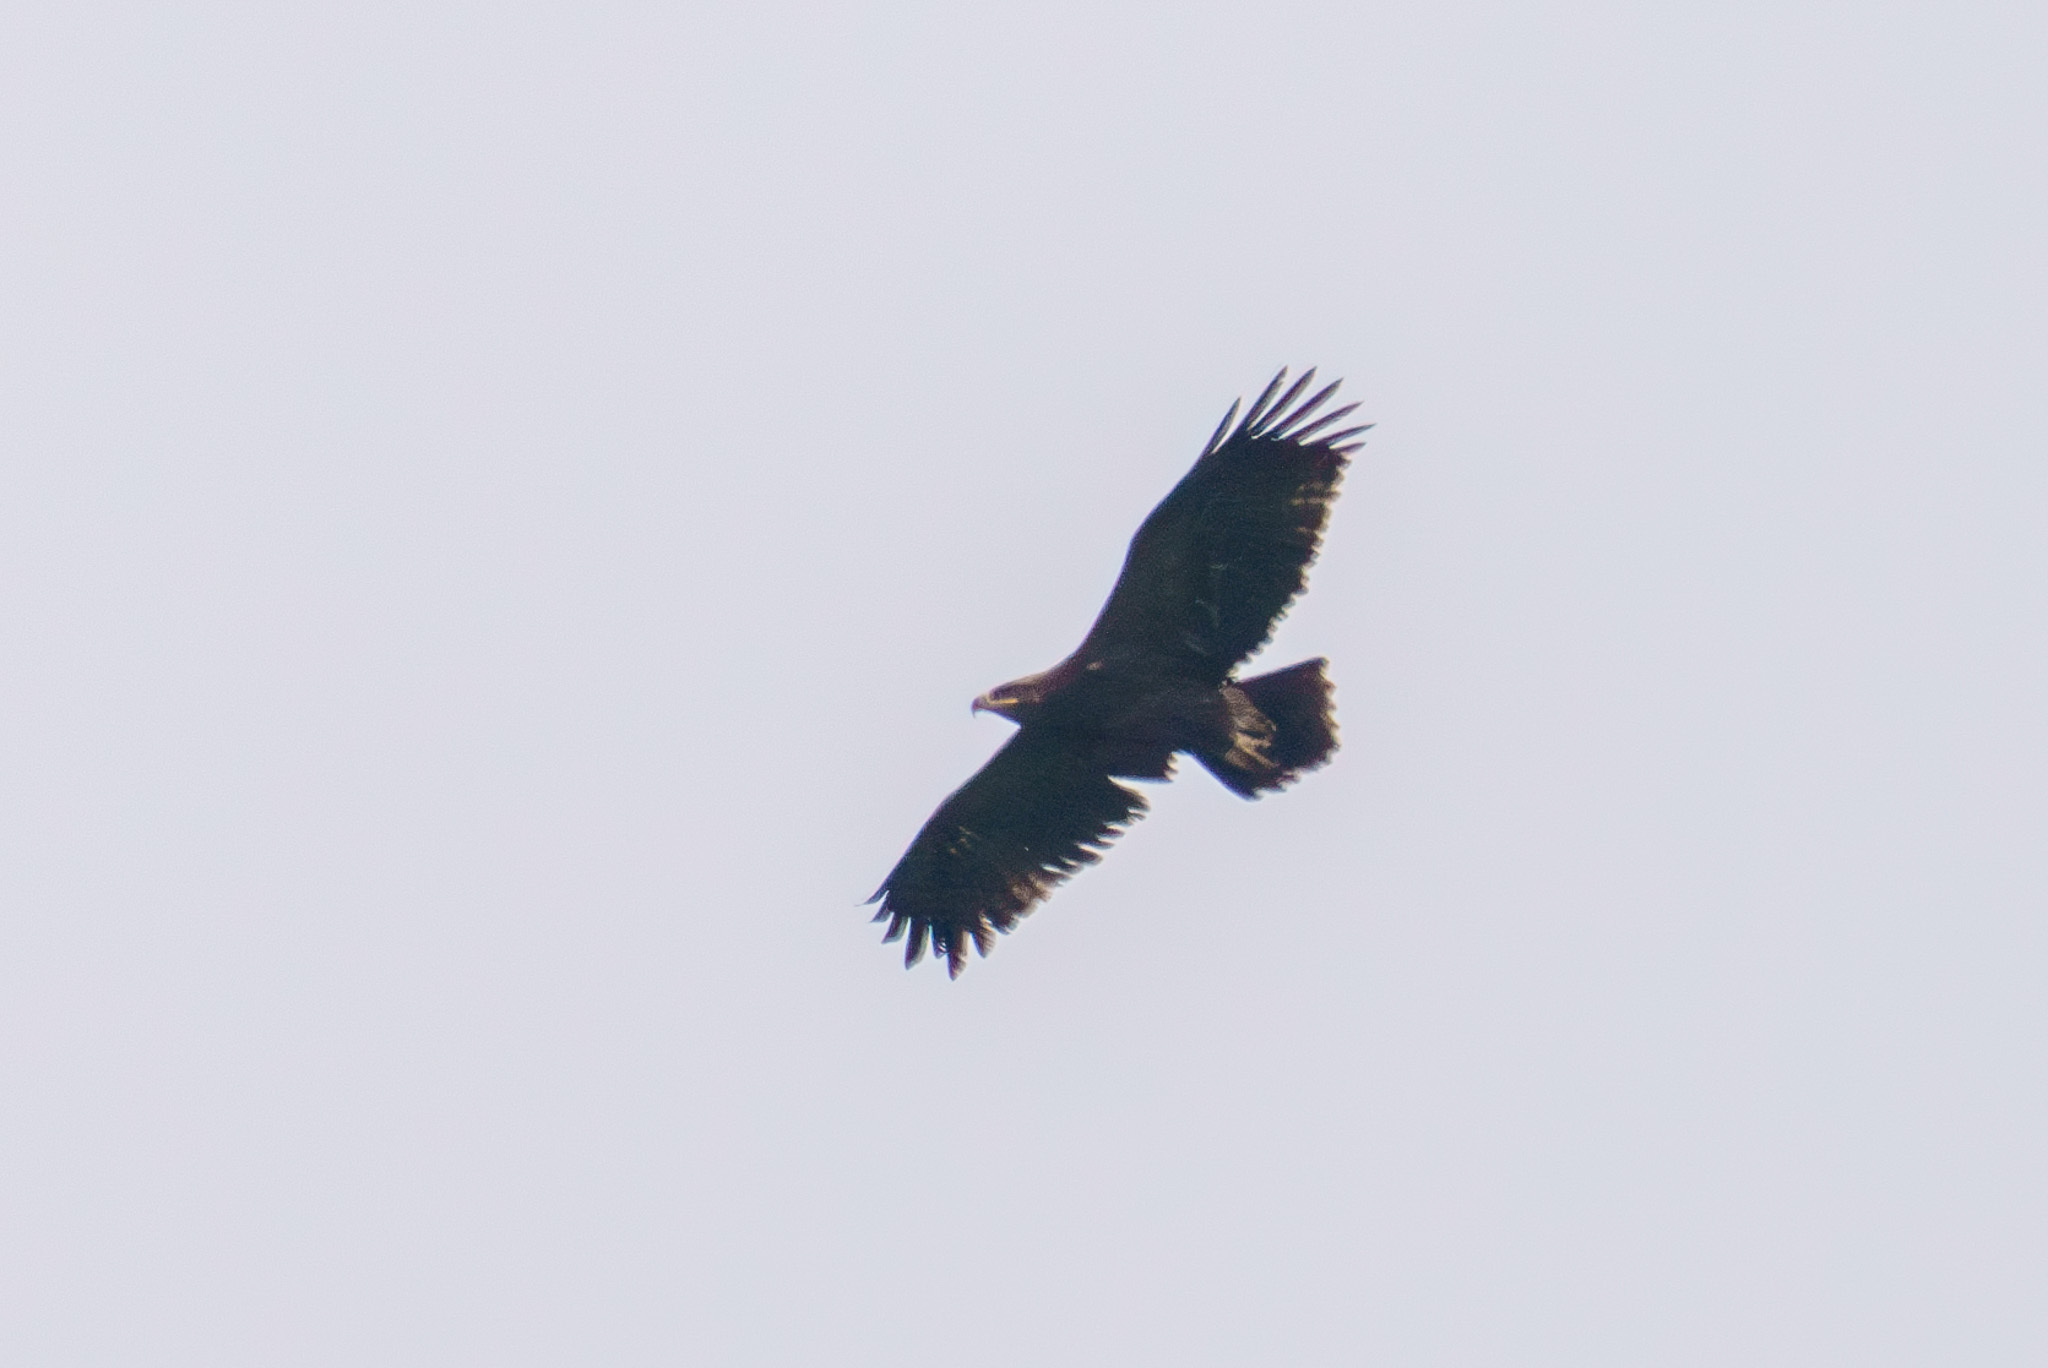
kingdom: Animalia
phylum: Chordata
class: Aves
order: Accipitriformes
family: Accipitridae
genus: Aquila
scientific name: Aquila heliaca
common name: Eastern imperial eagle
